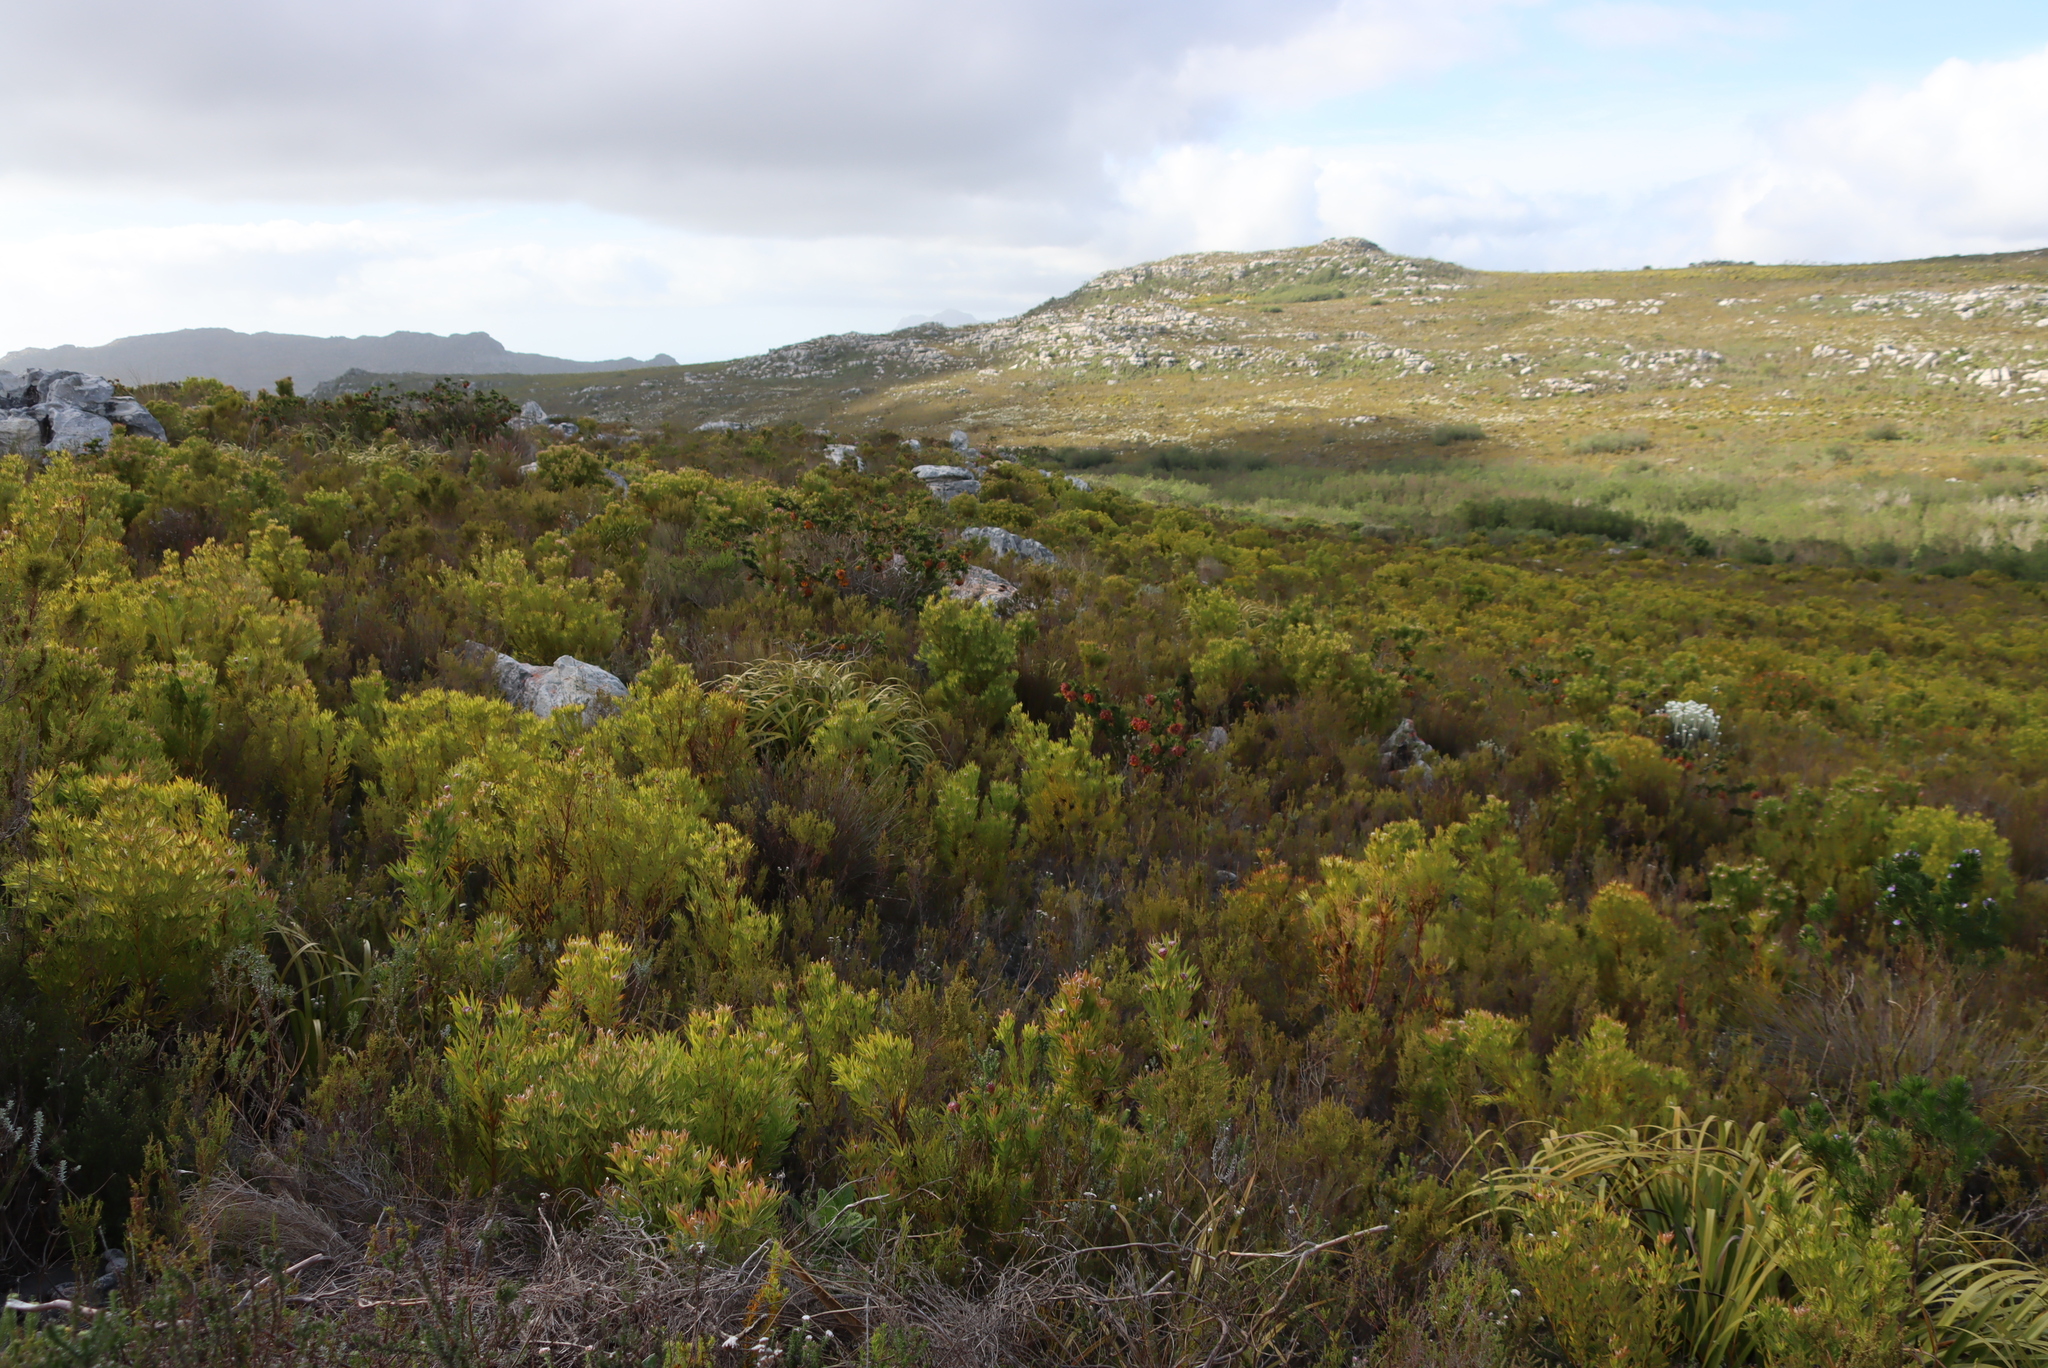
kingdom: Plantae
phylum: Tracheophyta
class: Magnoliopsida
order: Proteales
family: Proteaceae
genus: Leucadendron
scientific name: Leucadendron xanthoconus
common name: Sickle-leaf conebush
